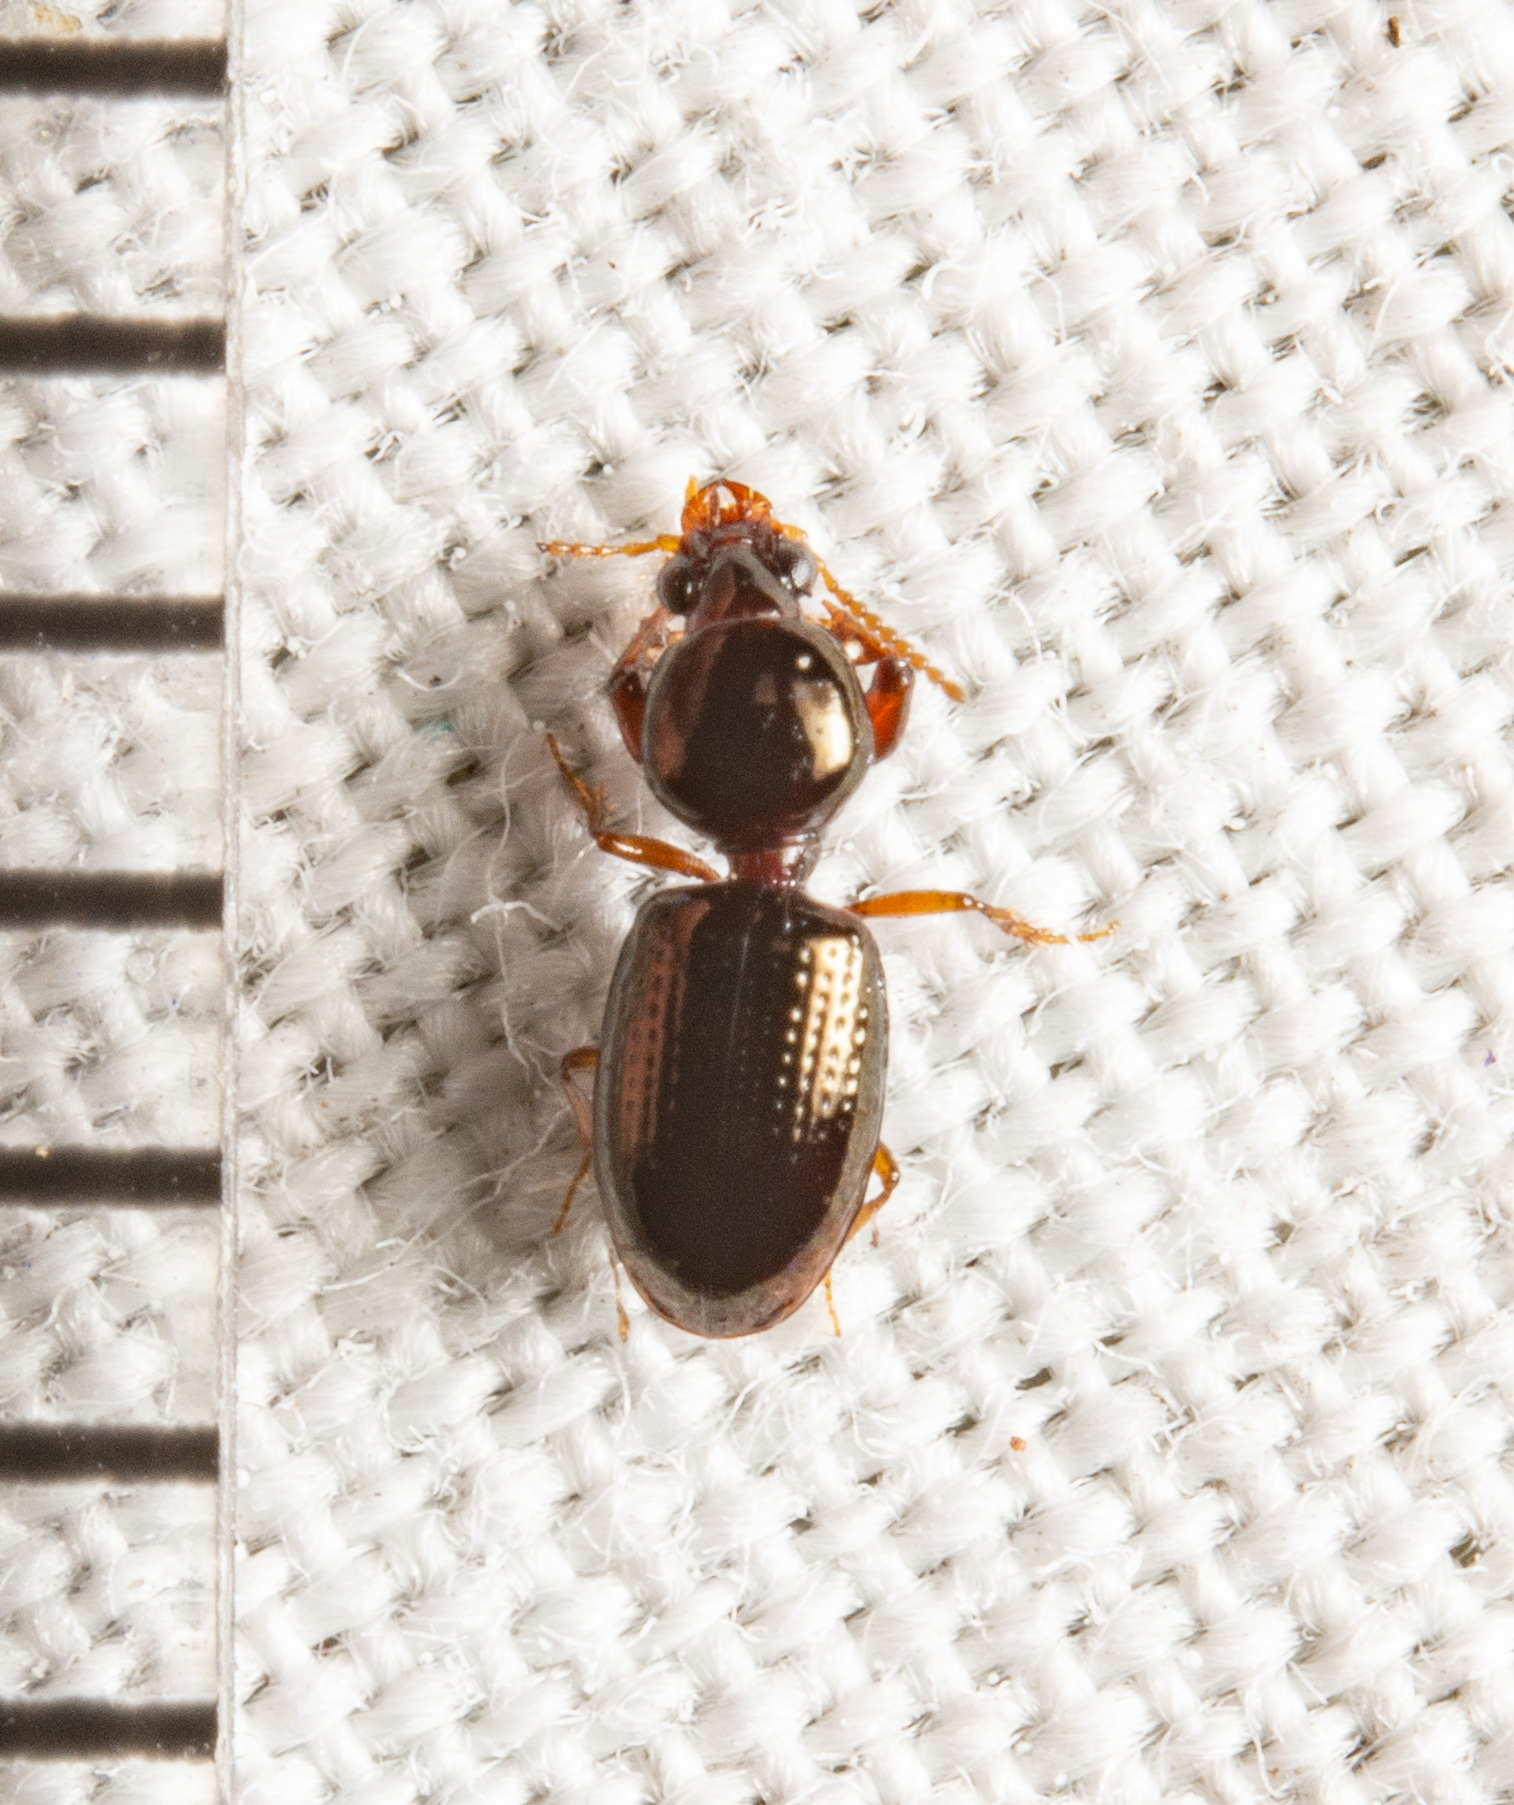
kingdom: Animalia
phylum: Arthropoda
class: Insecta
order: Coleoptera
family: Carabidae
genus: Dyschirius
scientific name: Dyschirius abbreviatus
